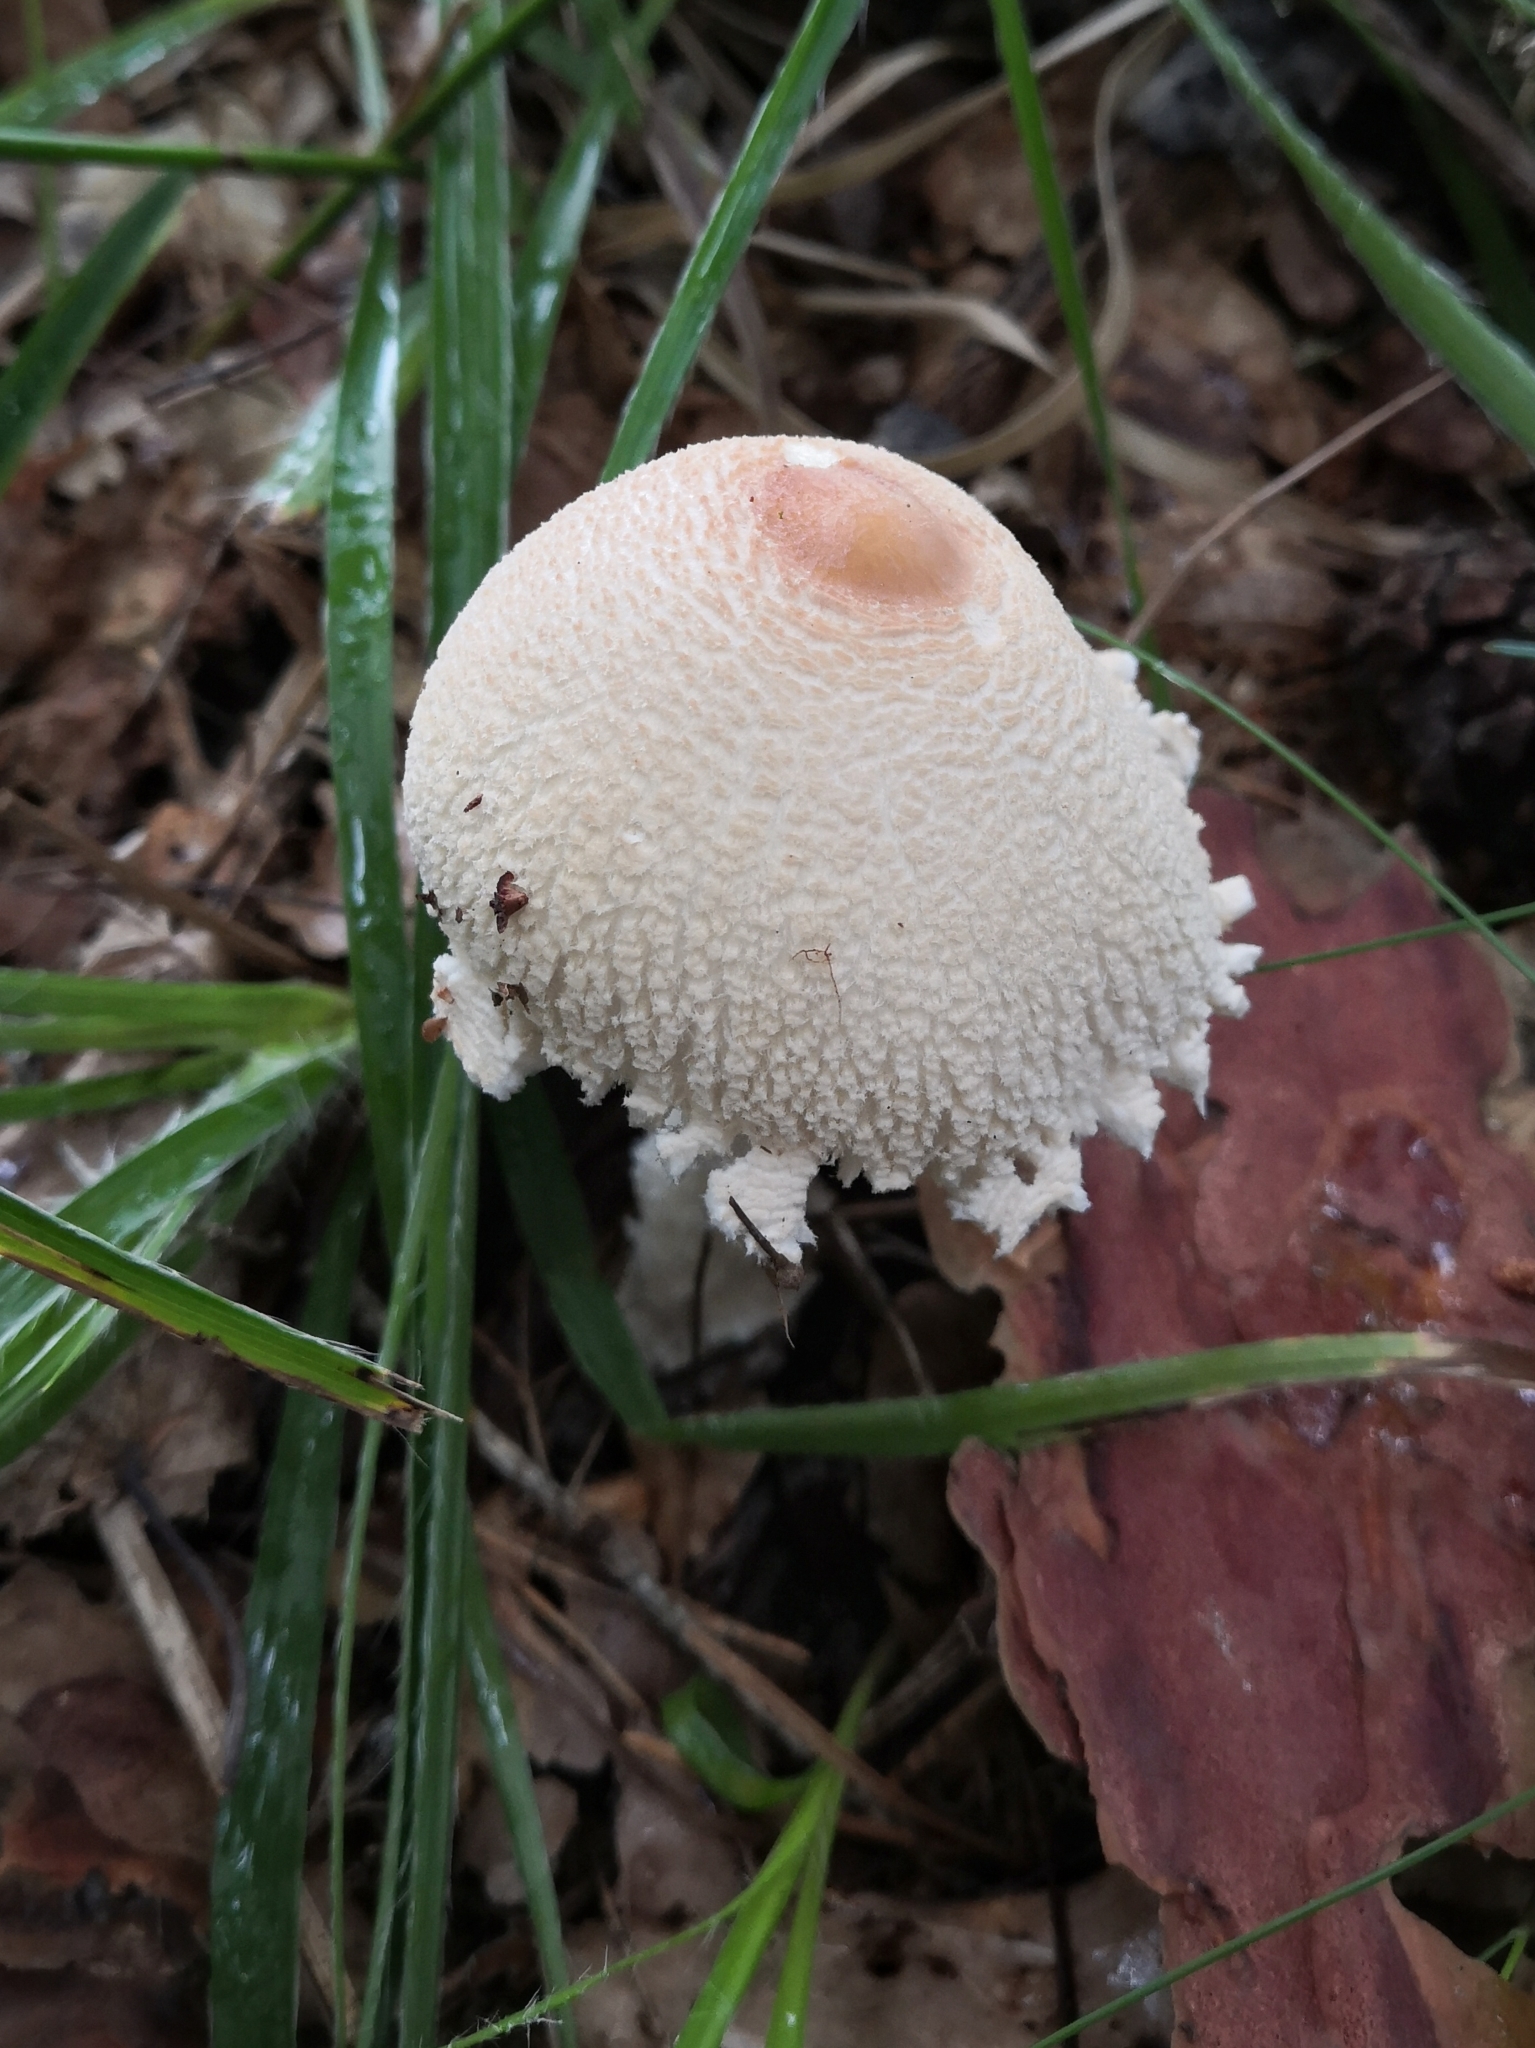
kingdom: Fungi
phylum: Basidiomycota
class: Agaricomycetes
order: Agaricales
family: Agaricaceae
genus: Lepiota
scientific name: Lepiota clypeolaria
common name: Shield dapperling
